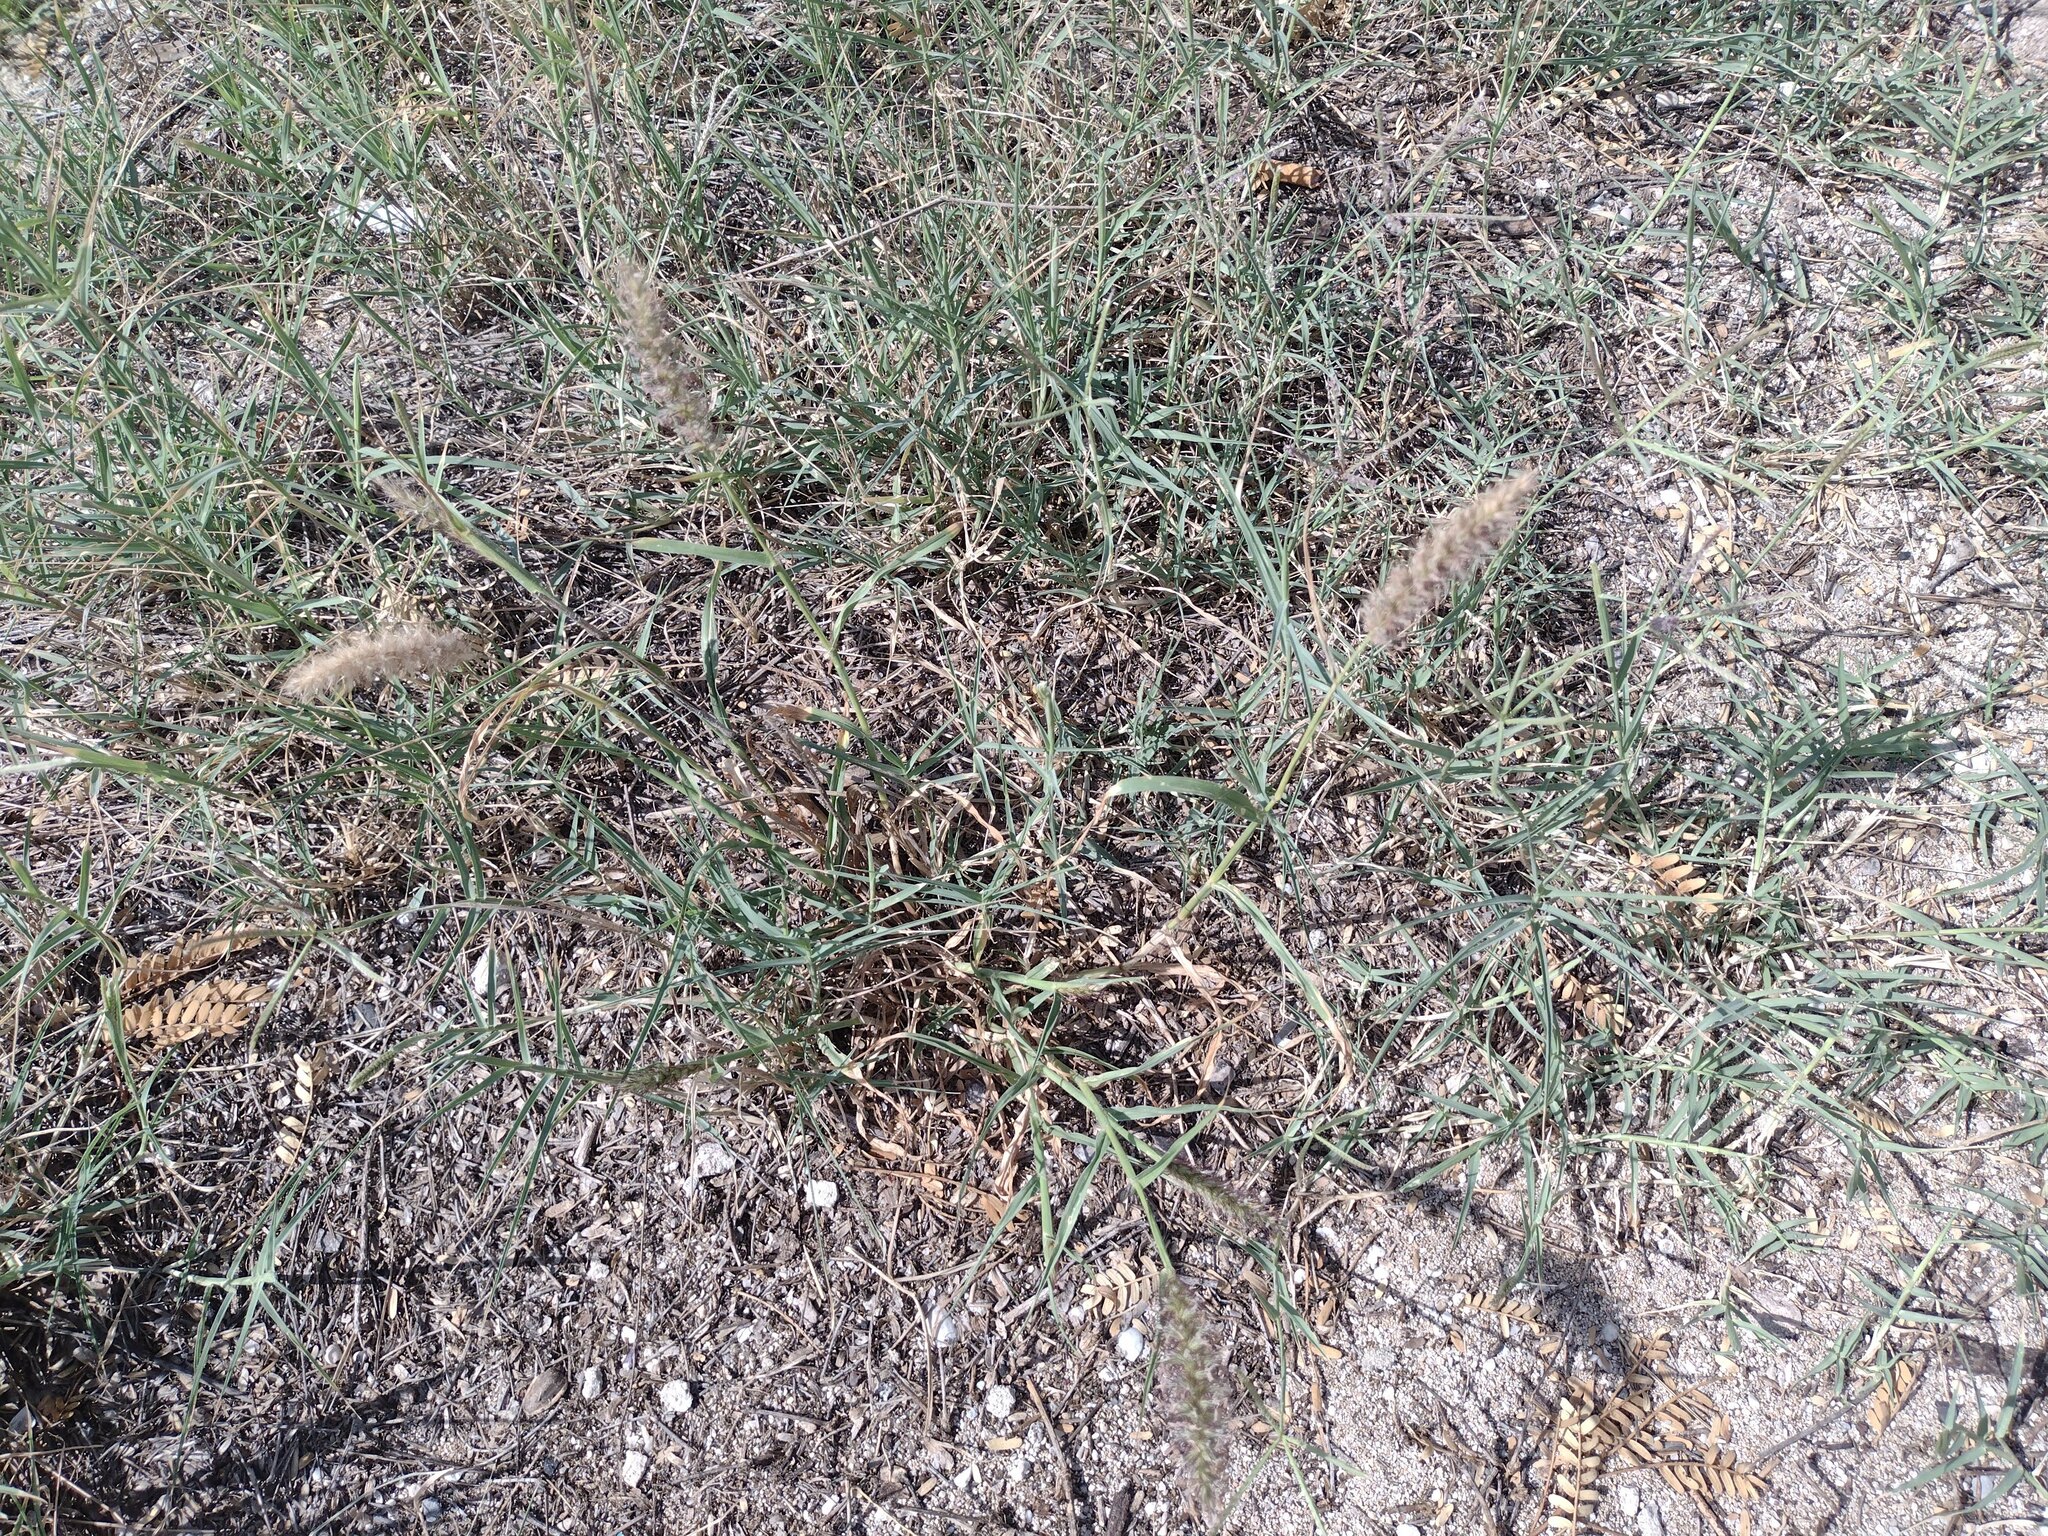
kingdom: Plantae
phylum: Tracheophyta
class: Liliopsida
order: Poales
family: Poaceae
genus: Cenchrus
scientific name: Cenchrus ciliaris
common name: Buffelgrass
